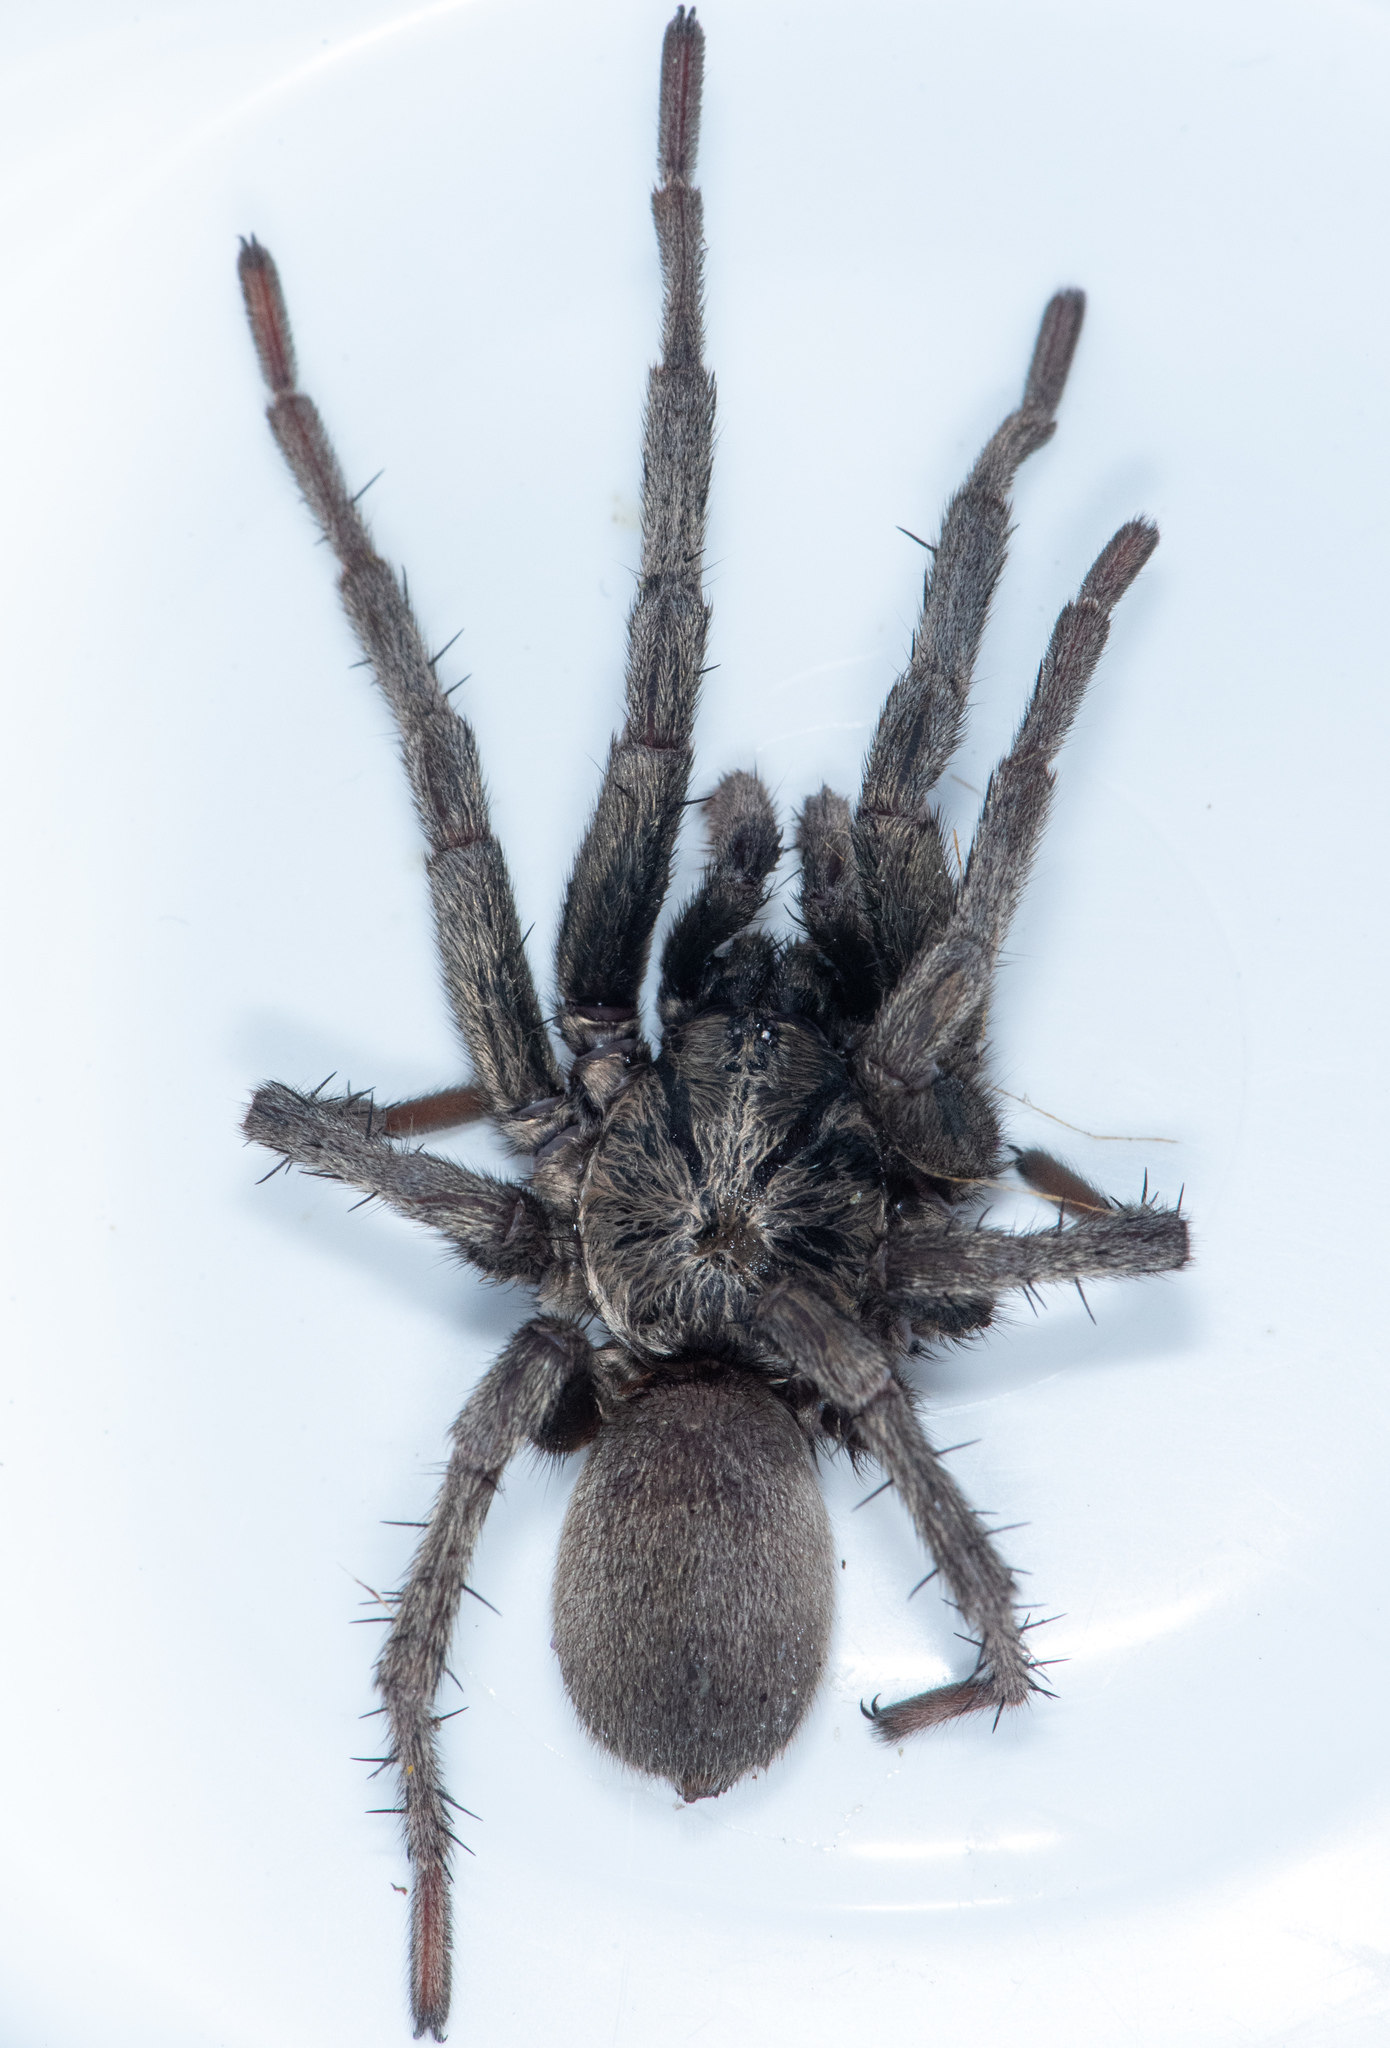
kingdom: Animalia
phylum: Arthropoda
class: Arachnida
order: Araneae
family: Nemesiidae
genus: Calisoga
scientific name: Calisoga longitarsis
